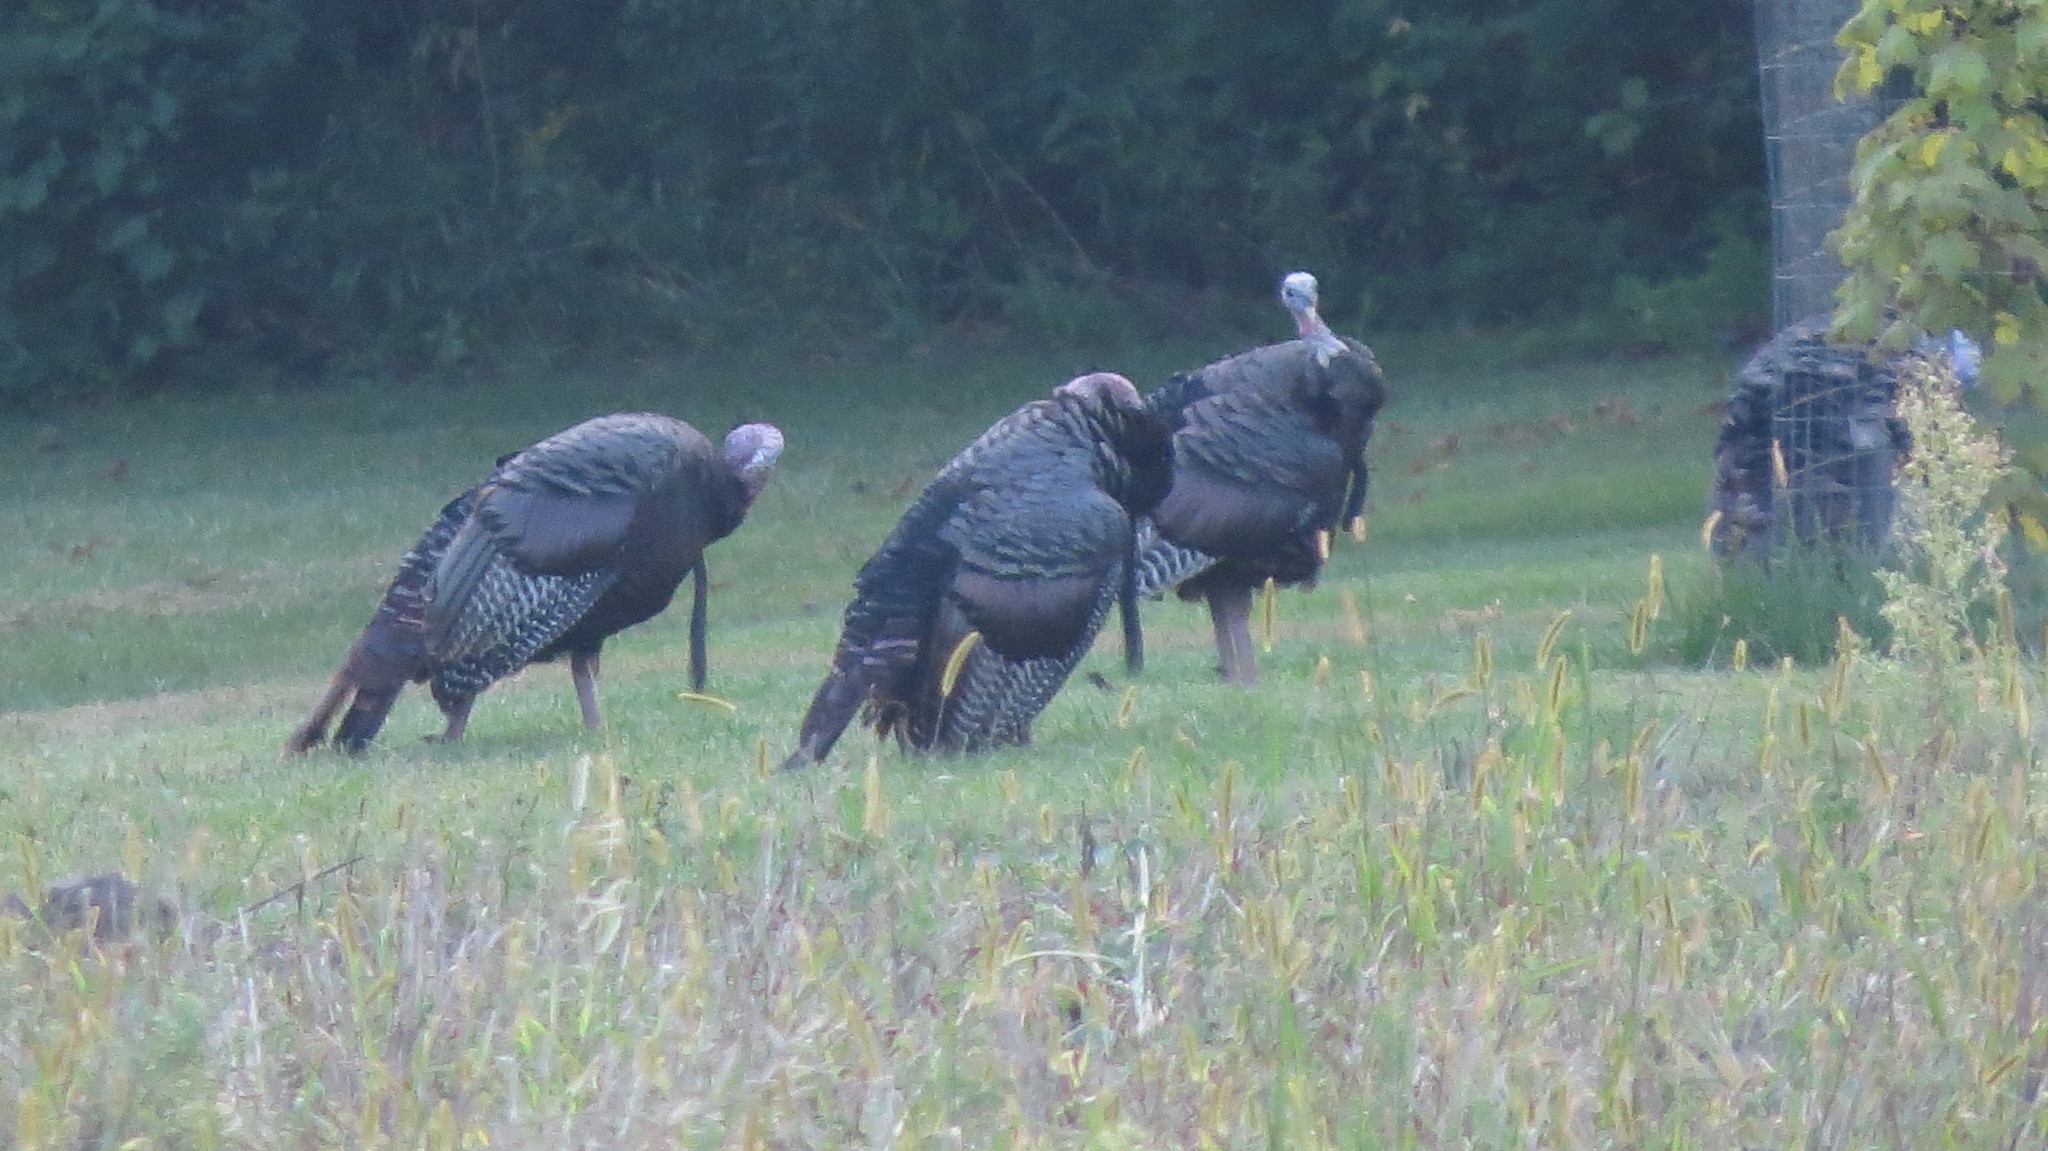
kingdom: Animalia
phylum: Chordata
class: Aves
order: Galliformes
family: Phasianidae
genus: Meleagris
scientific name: Meleagris gallopavo
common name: Wild turkey
